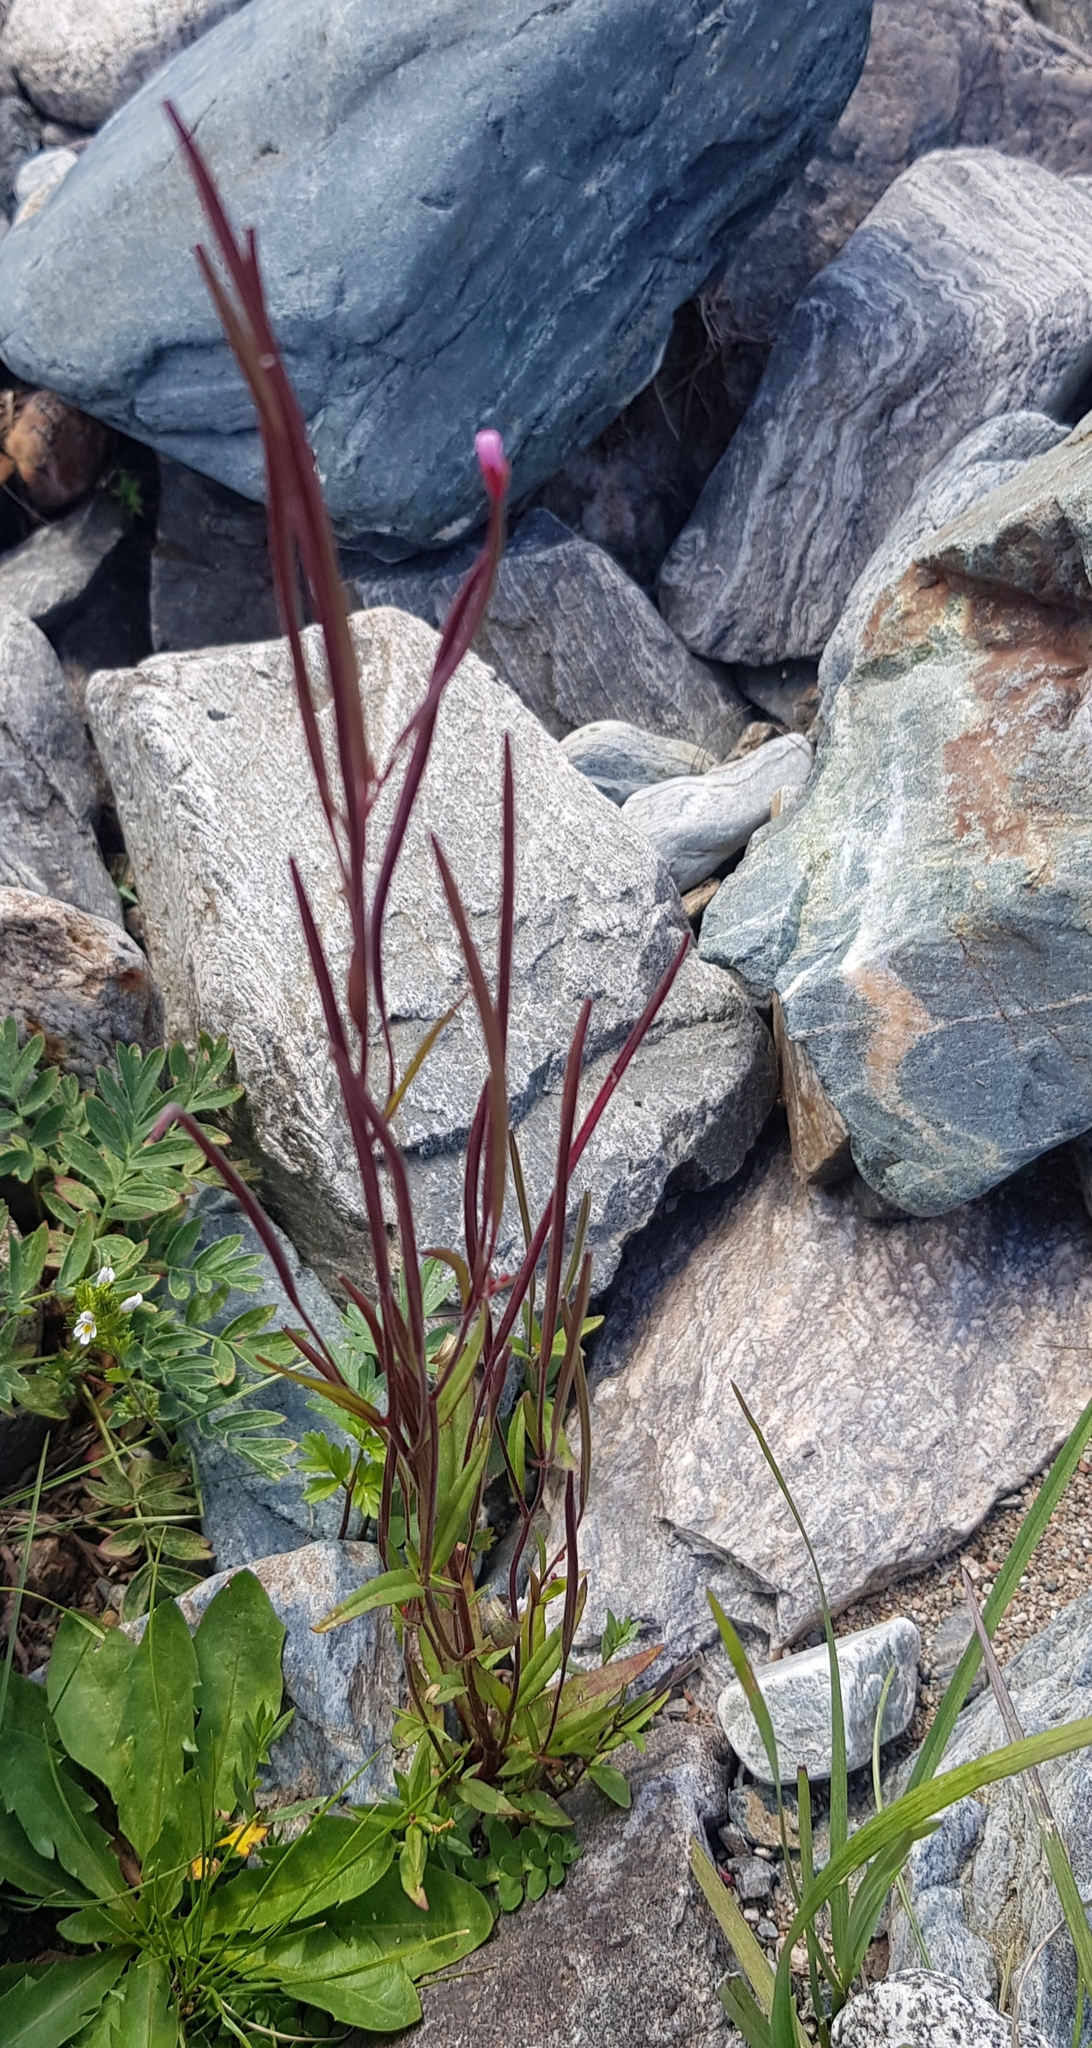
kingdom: Plantae
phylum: Tracheophyta
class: Magnoliopsida
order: Myrtales
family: Onagraceae
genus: Epilobium
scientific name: Epilobium palustre
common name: Marsh willowherb
